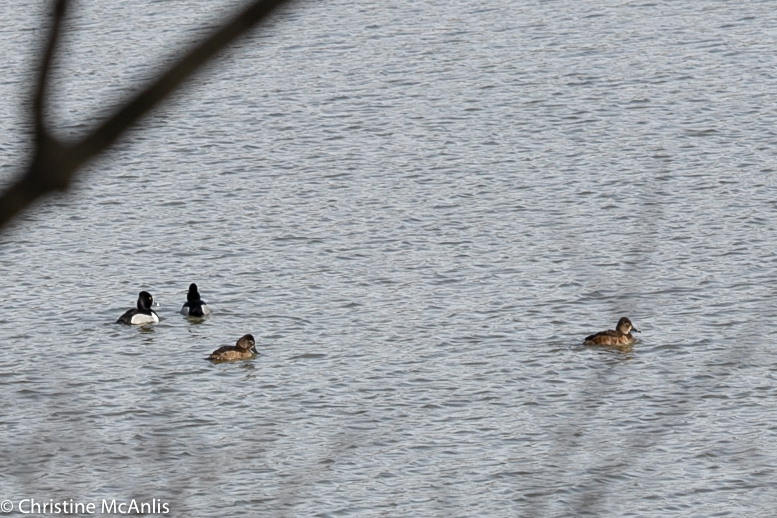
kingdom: Animalia
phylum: Chordata
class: Aves
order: Anseriformes
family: Anatidae
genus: Aythya
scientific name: Aythya collaris
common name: Ring-necked duck
